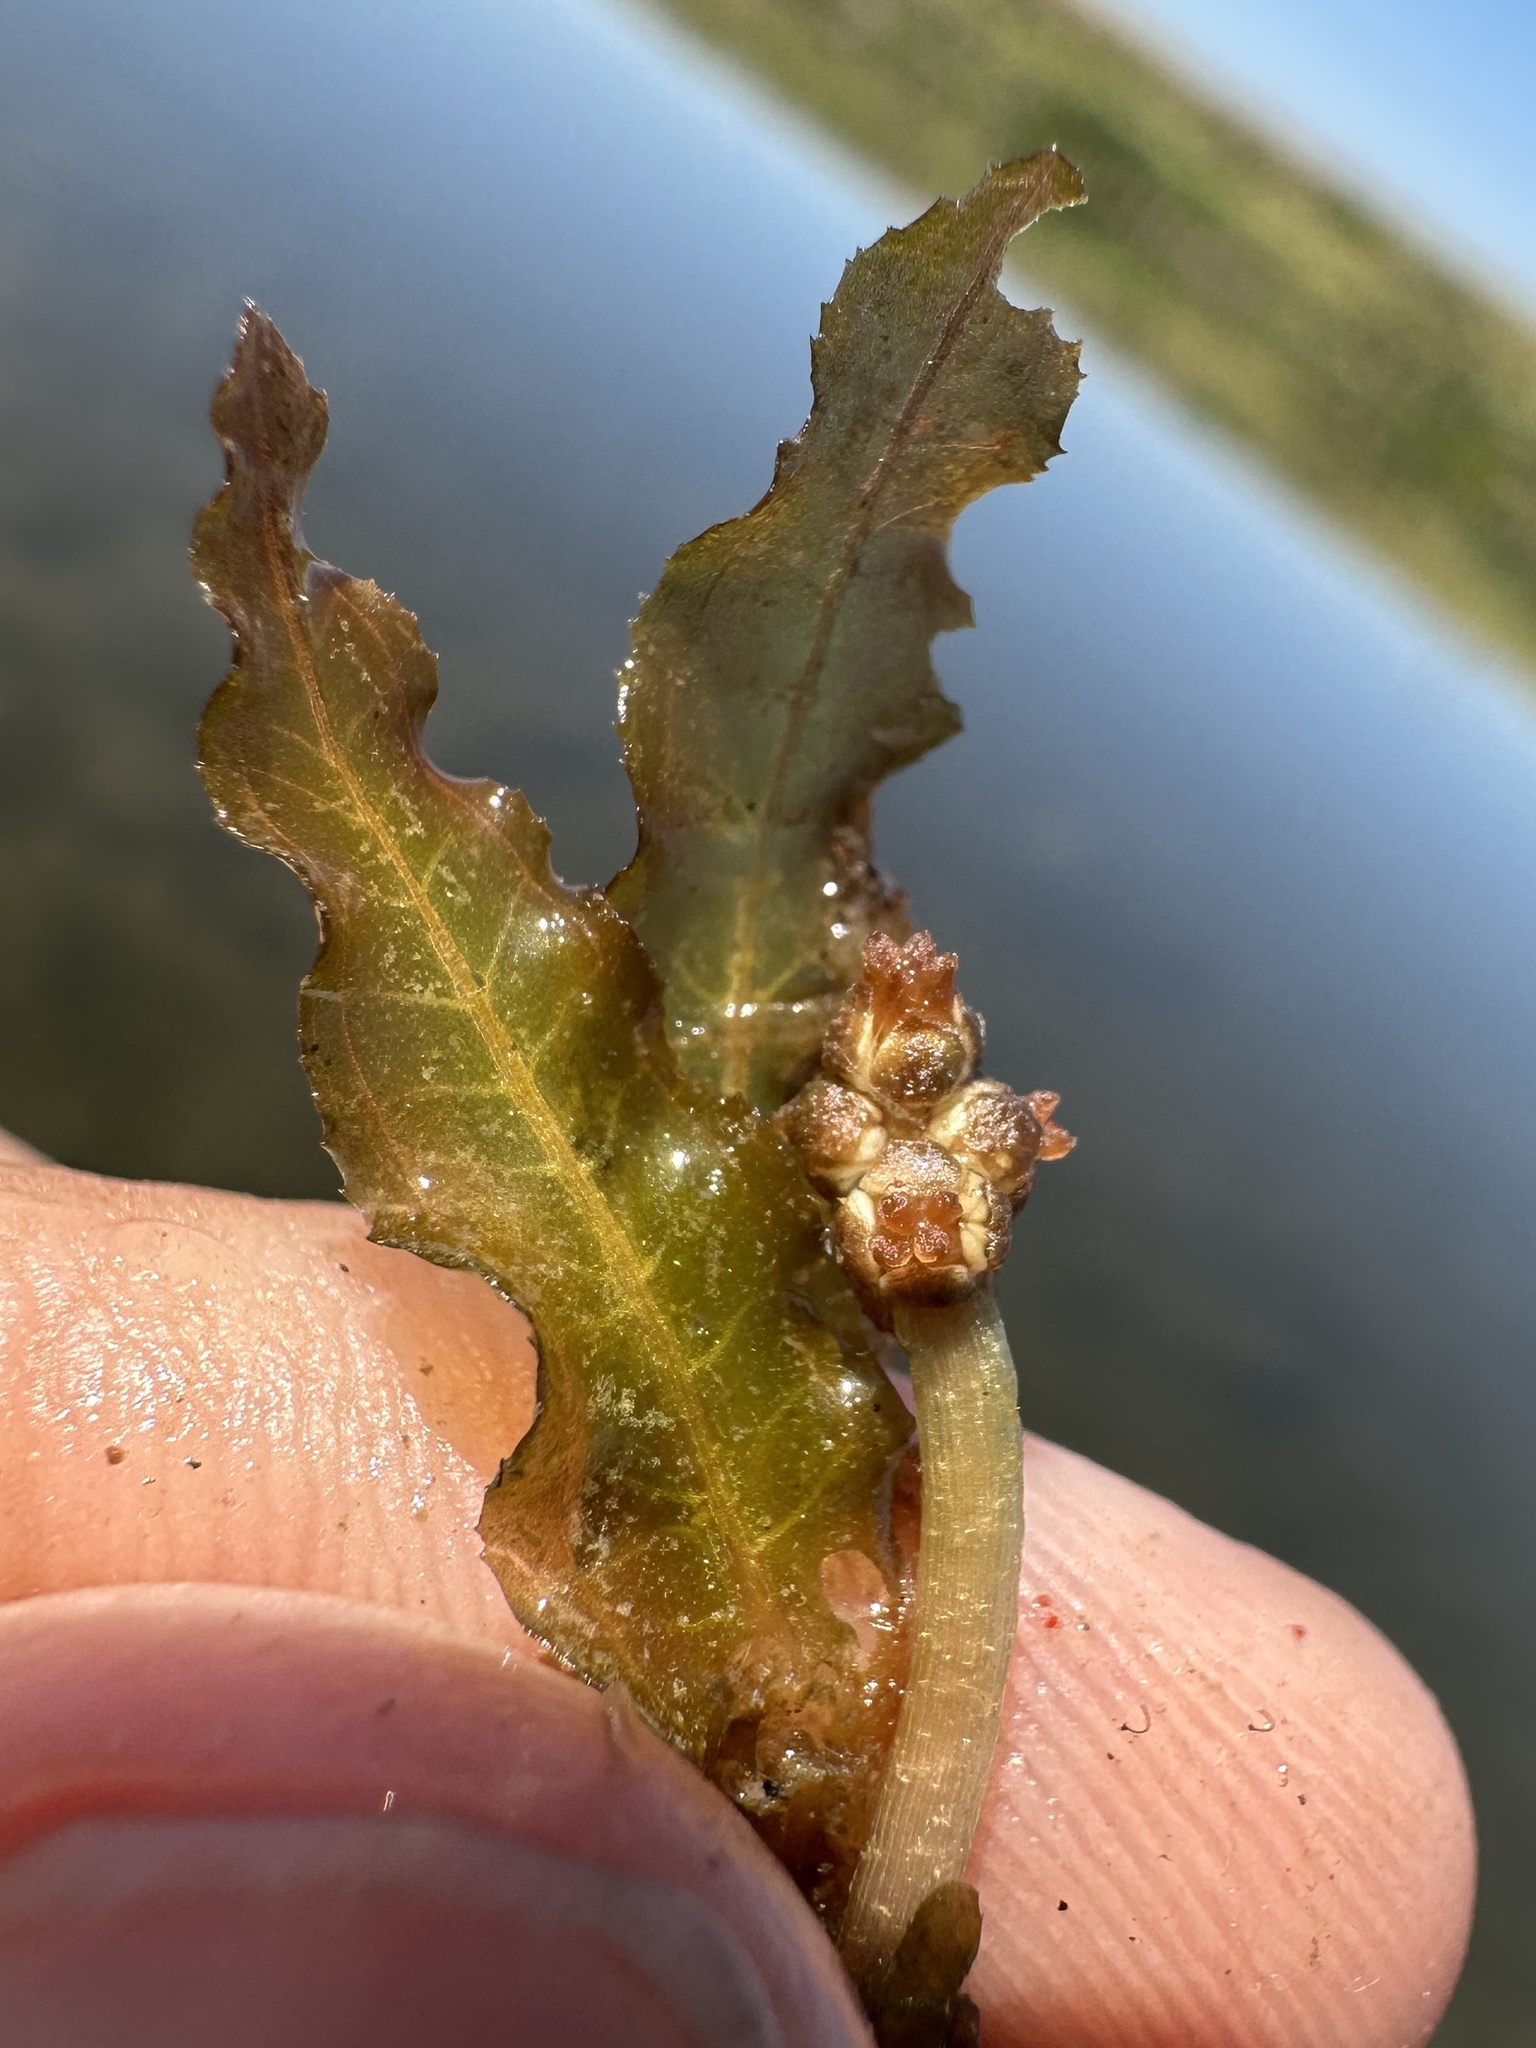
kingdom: Plantae
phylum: Tracheophyta
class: Liliopsida
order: Alismatales
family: Potamogetonaceae
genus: Potamogeton
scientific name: Potamogeton crispus
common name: Curled pondweed
